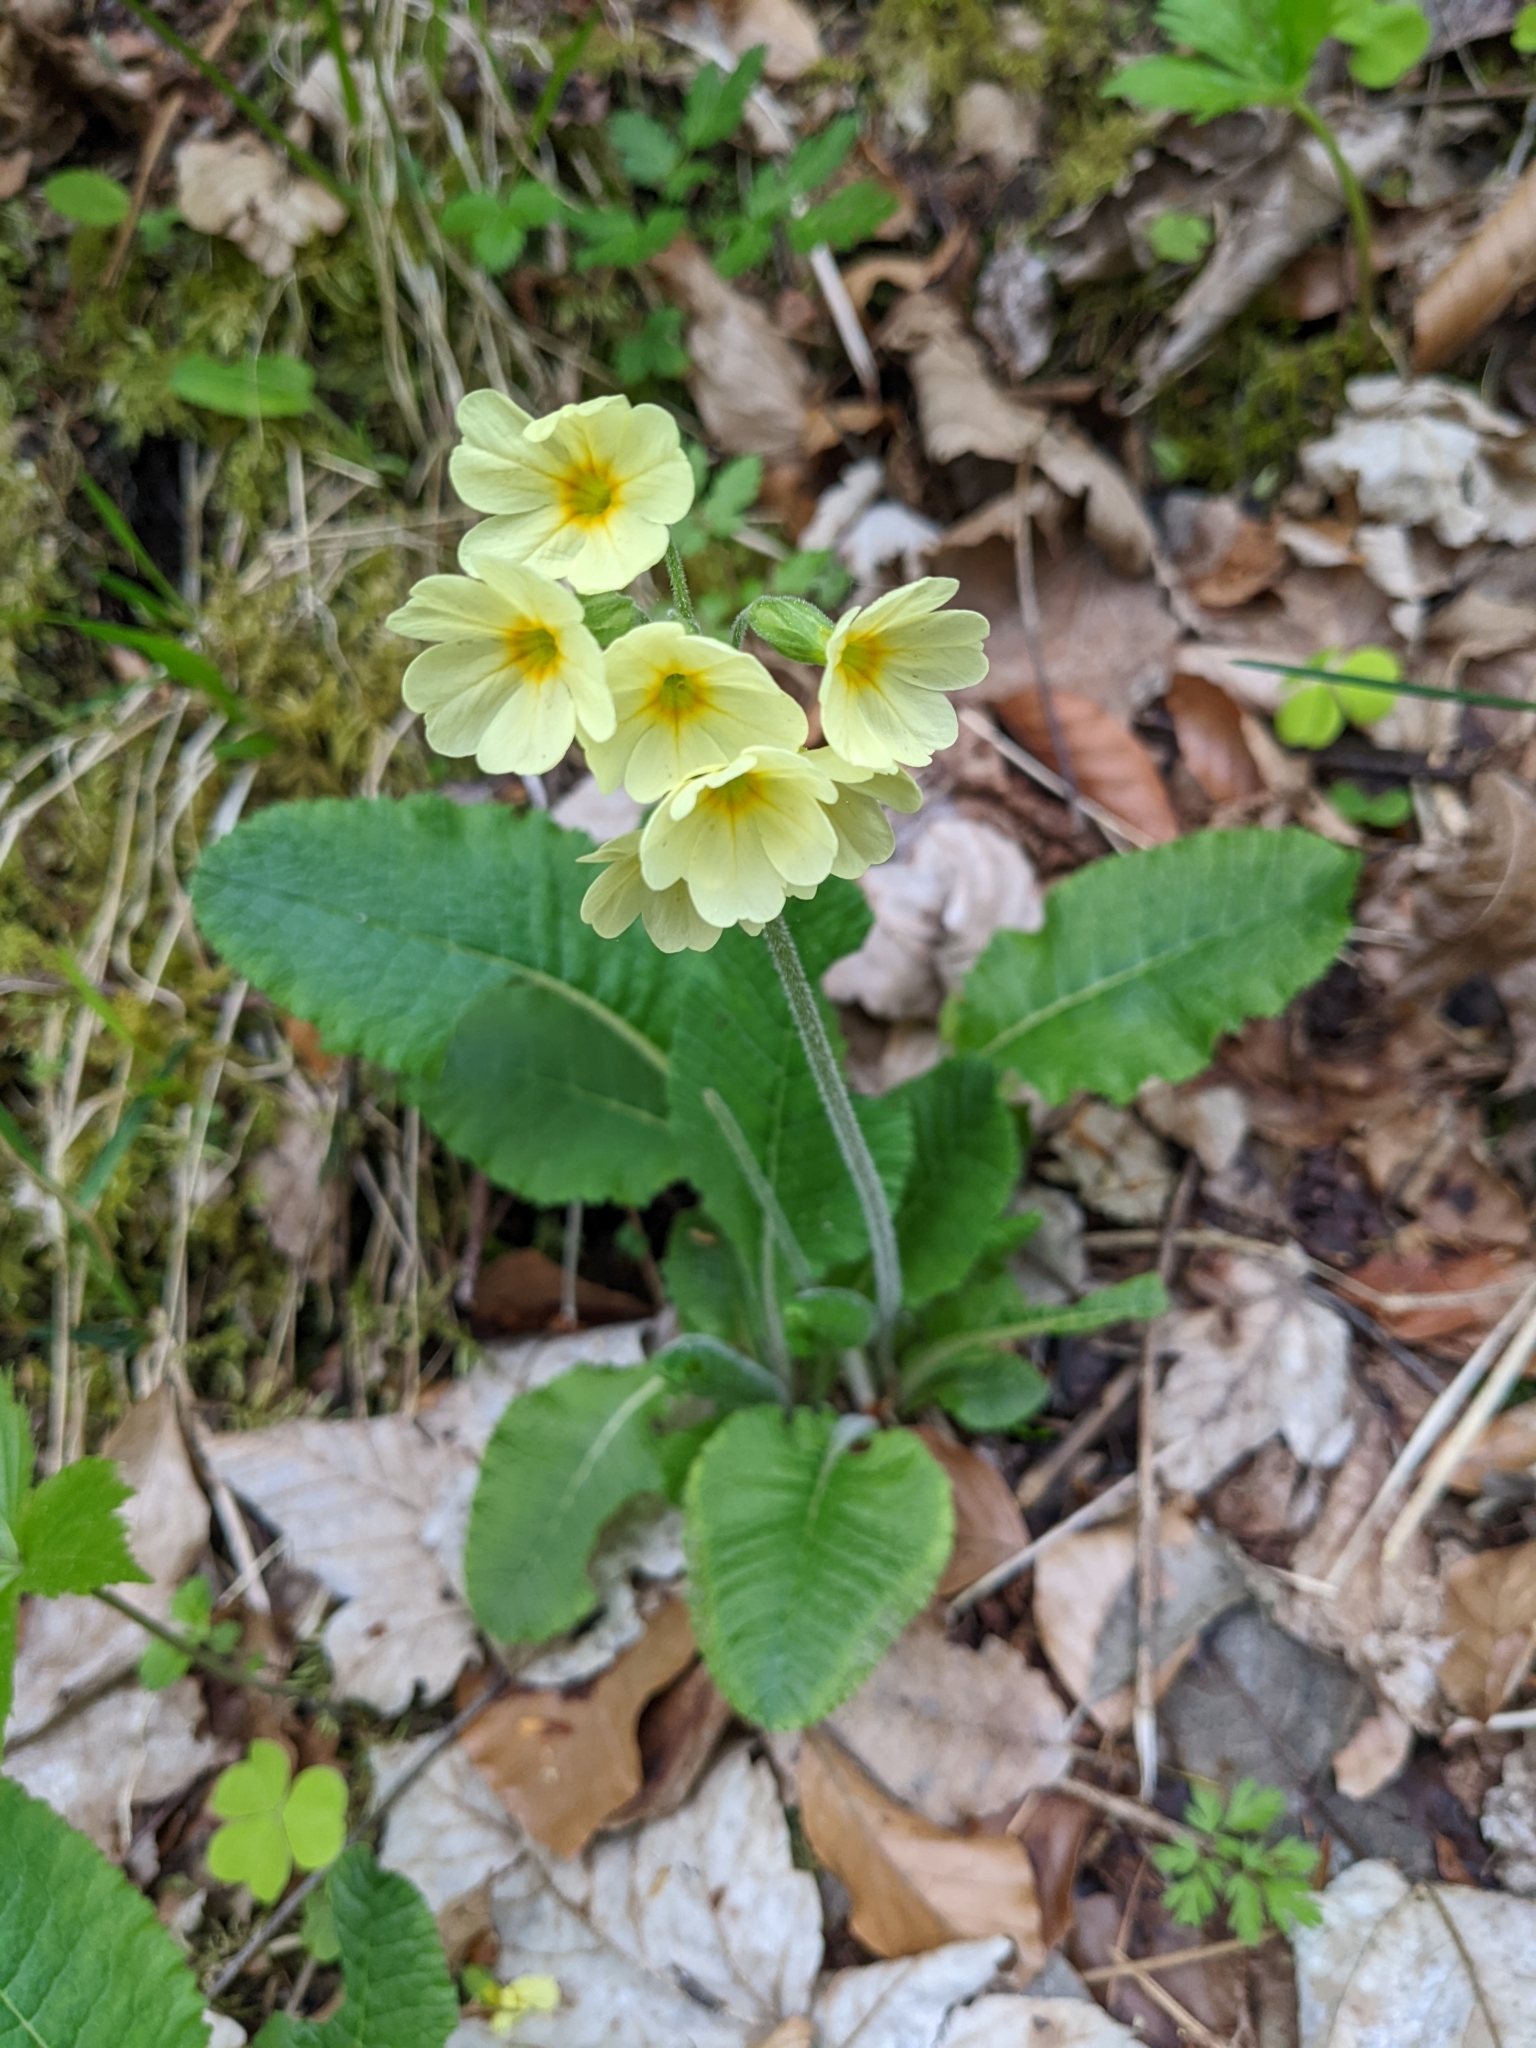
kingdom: Plantae
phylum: Tracheophyta
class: Magnoliopsida
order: Ericales
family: Primulaceae
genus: Primula
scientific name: Primula elatior
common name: Oxlip
